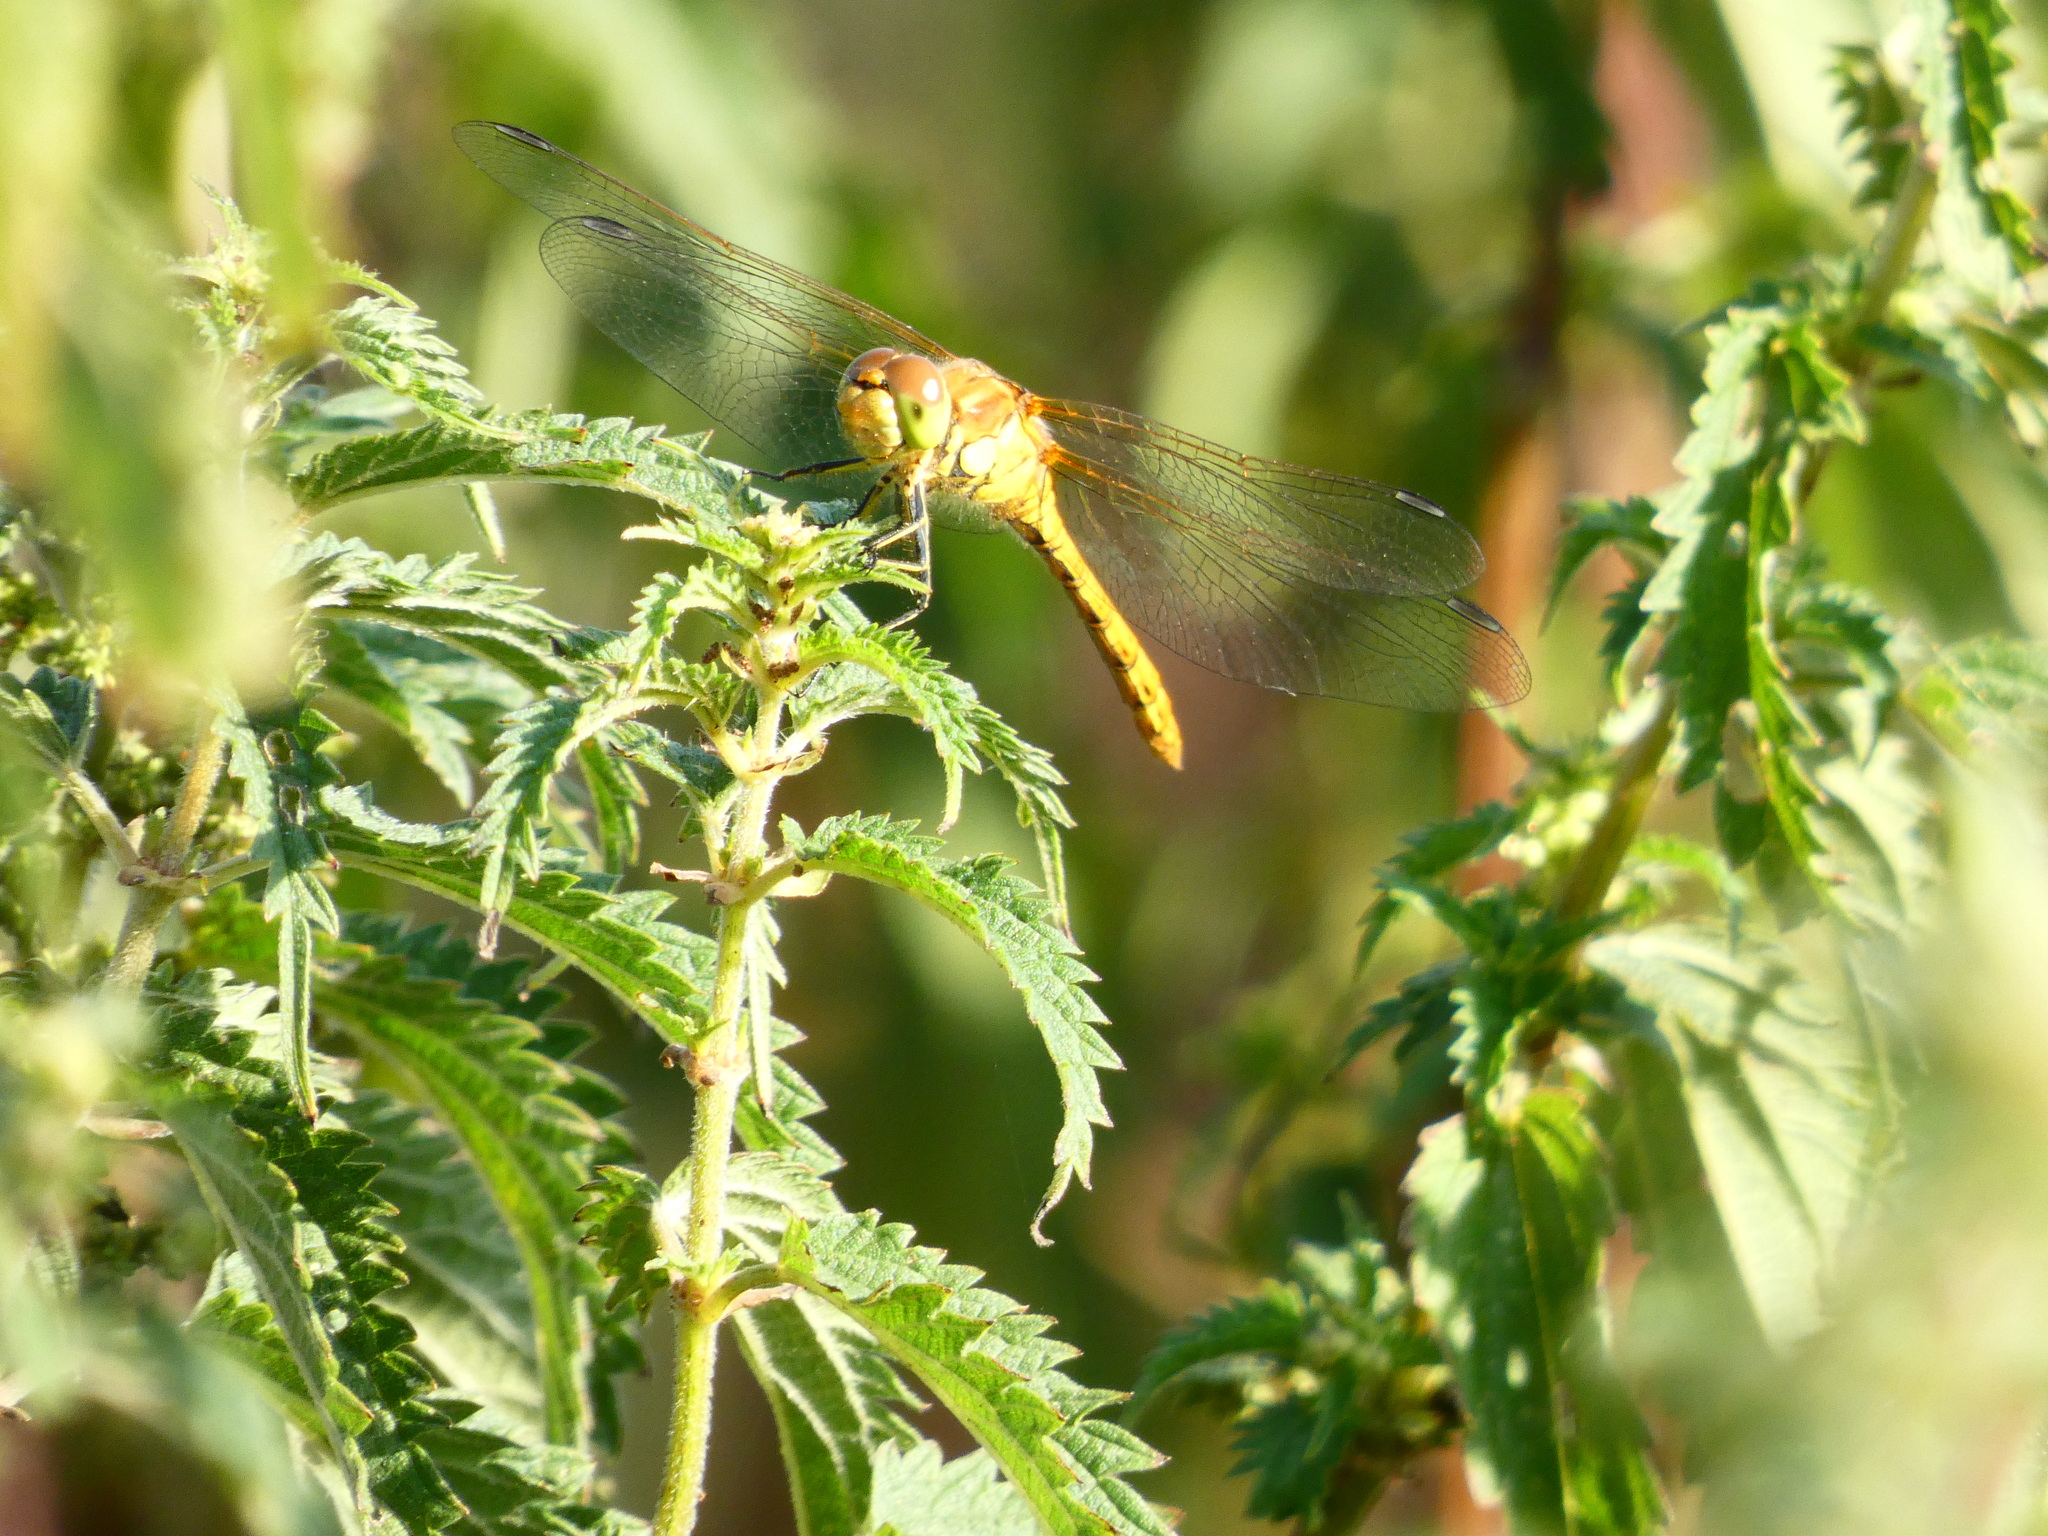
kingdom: Animalia
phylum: Arthropoda
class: Insecta
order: Odonata
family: Libellulidae
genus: Sympetrum
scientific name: Sympetrum striolatum
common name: Common darter
